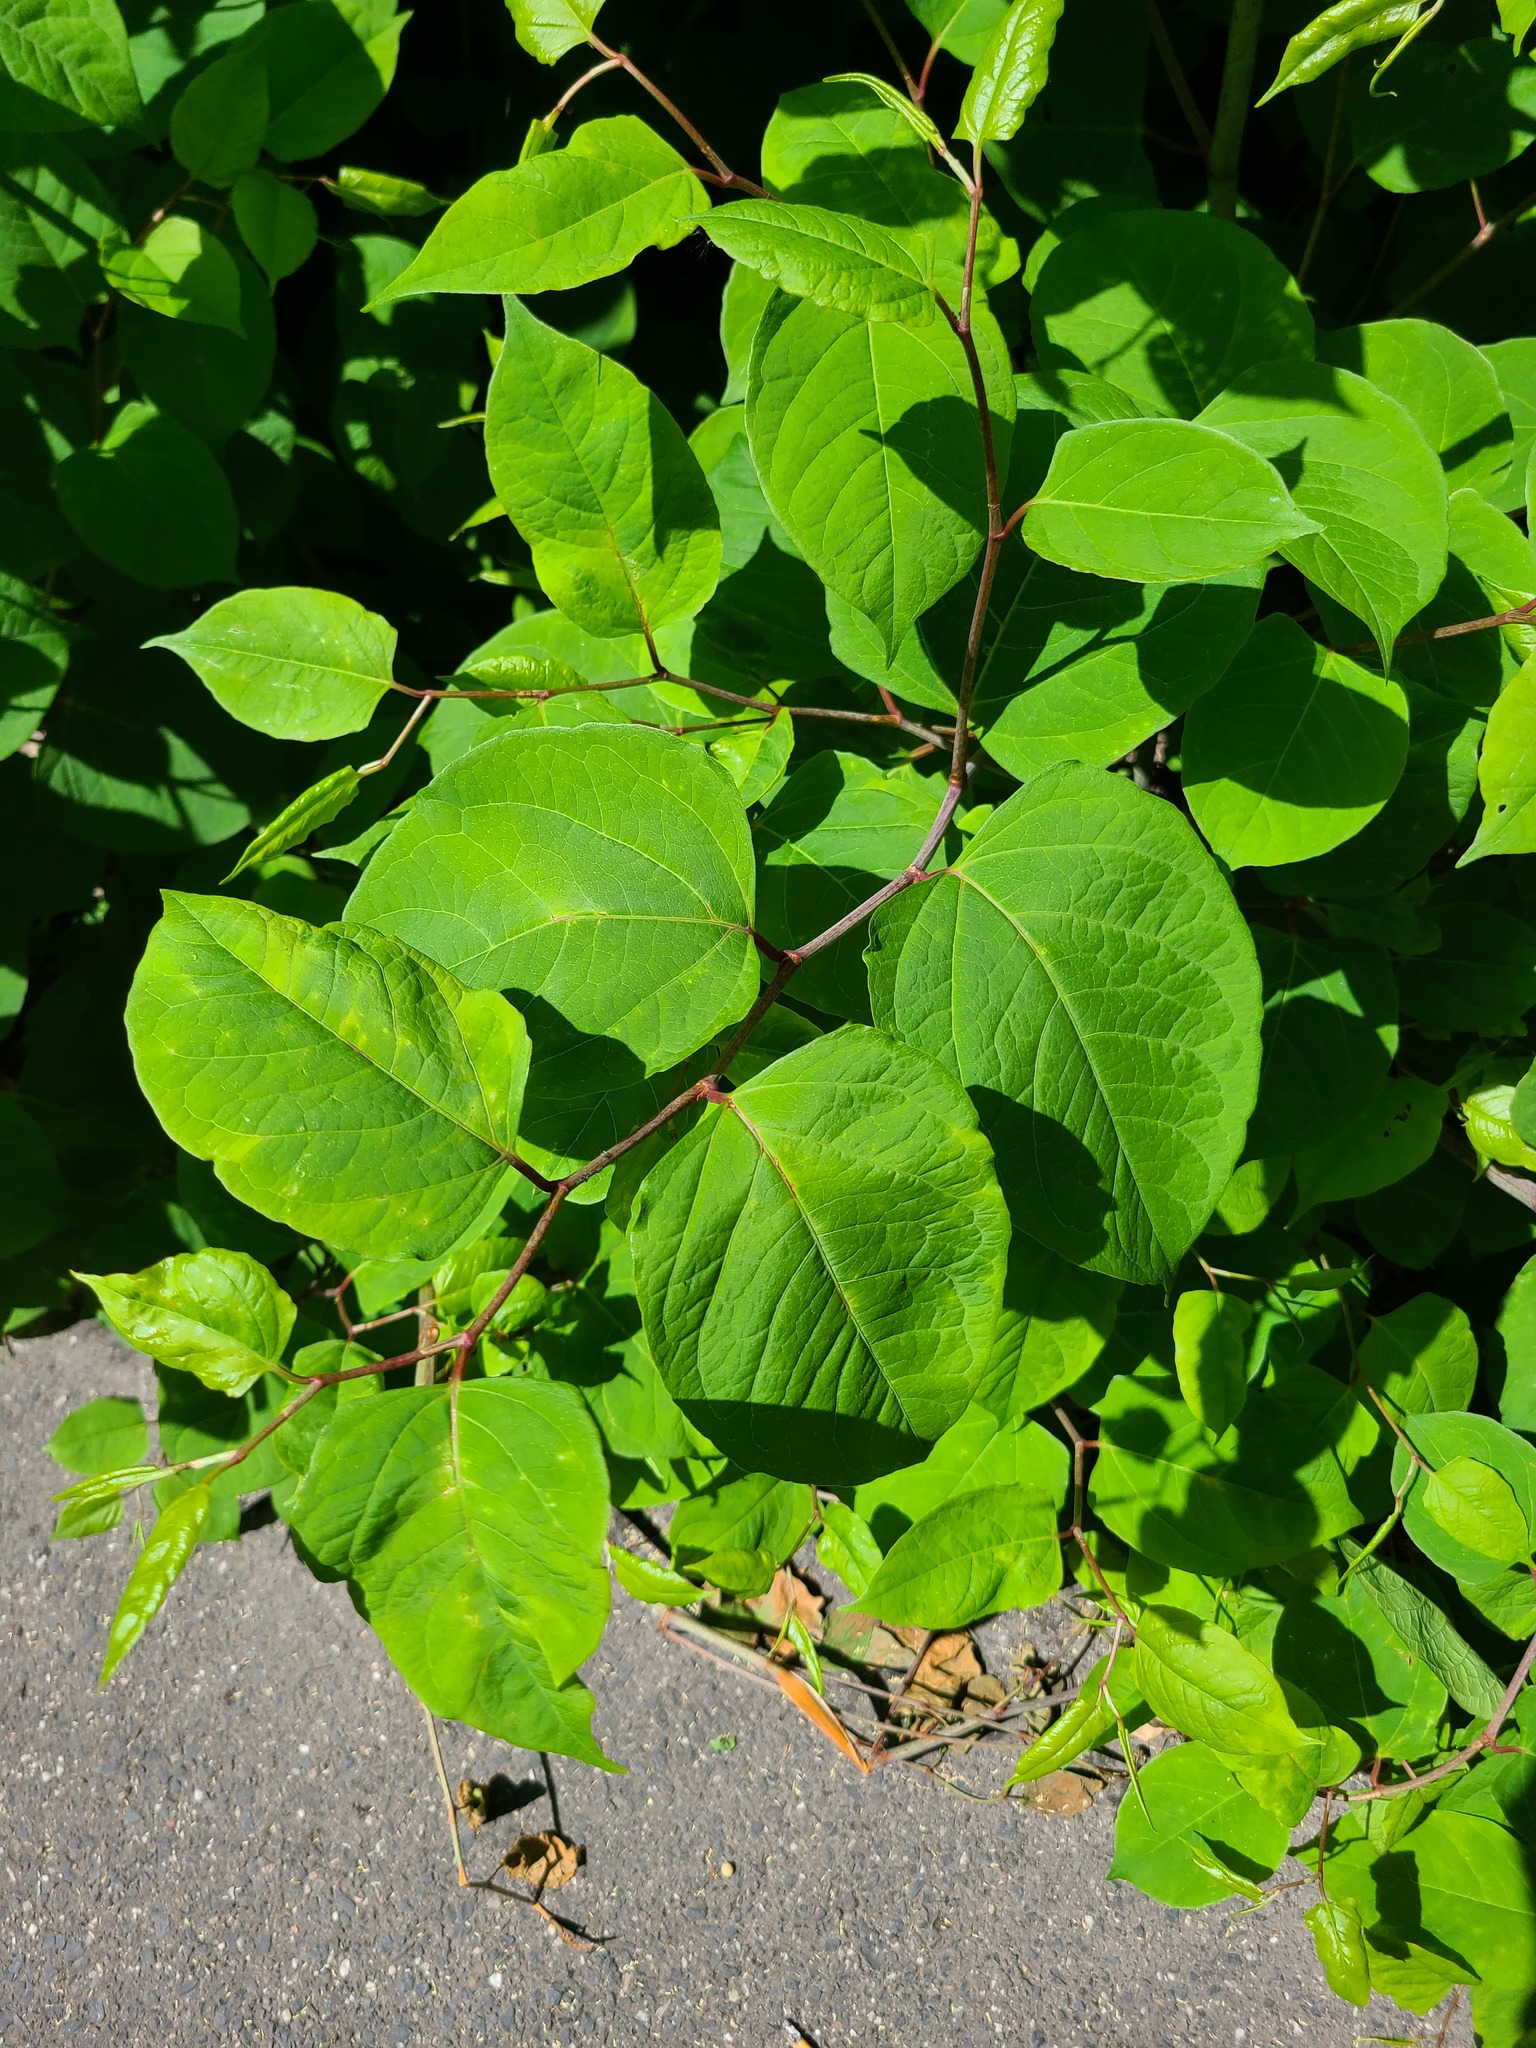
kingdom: Plantae
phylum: Tracheophyta
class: Magnoliopsida
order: Caryophyllales
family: Polygonaceae
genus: Reynoutria
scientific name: Reynoutria japonica
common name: Japanese knotweed
